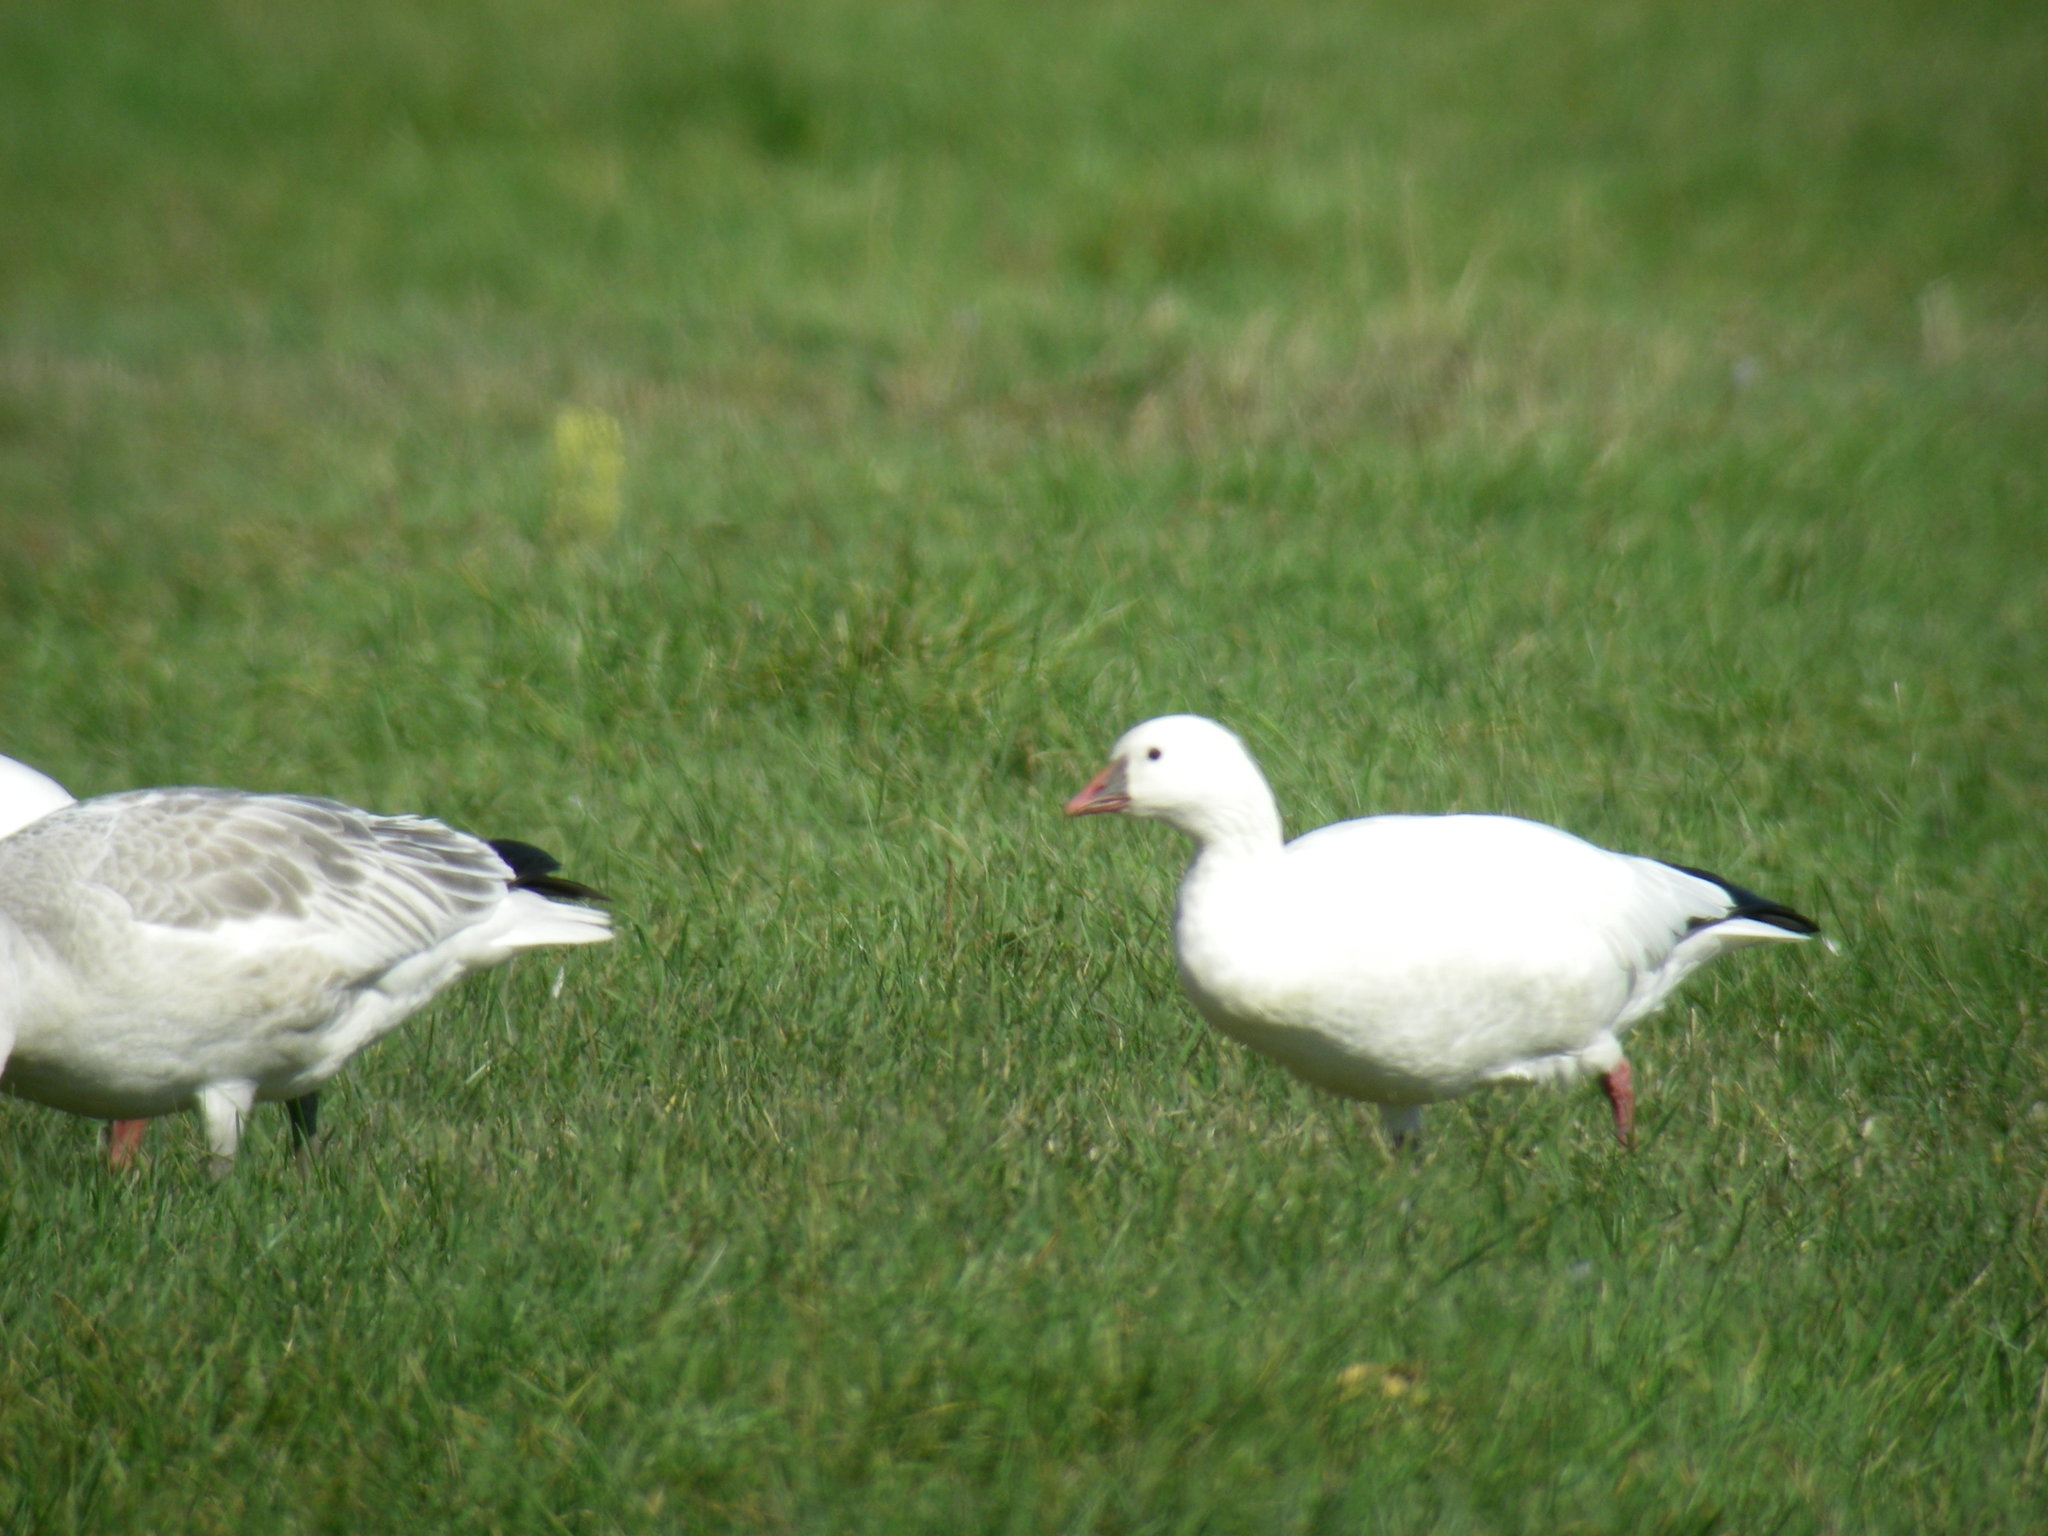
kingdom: Animalia
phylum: Chordata
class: Aves
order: Anseriformes
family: Anatidae
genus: Anser
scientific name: Anser rossii
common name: Ross's goose
